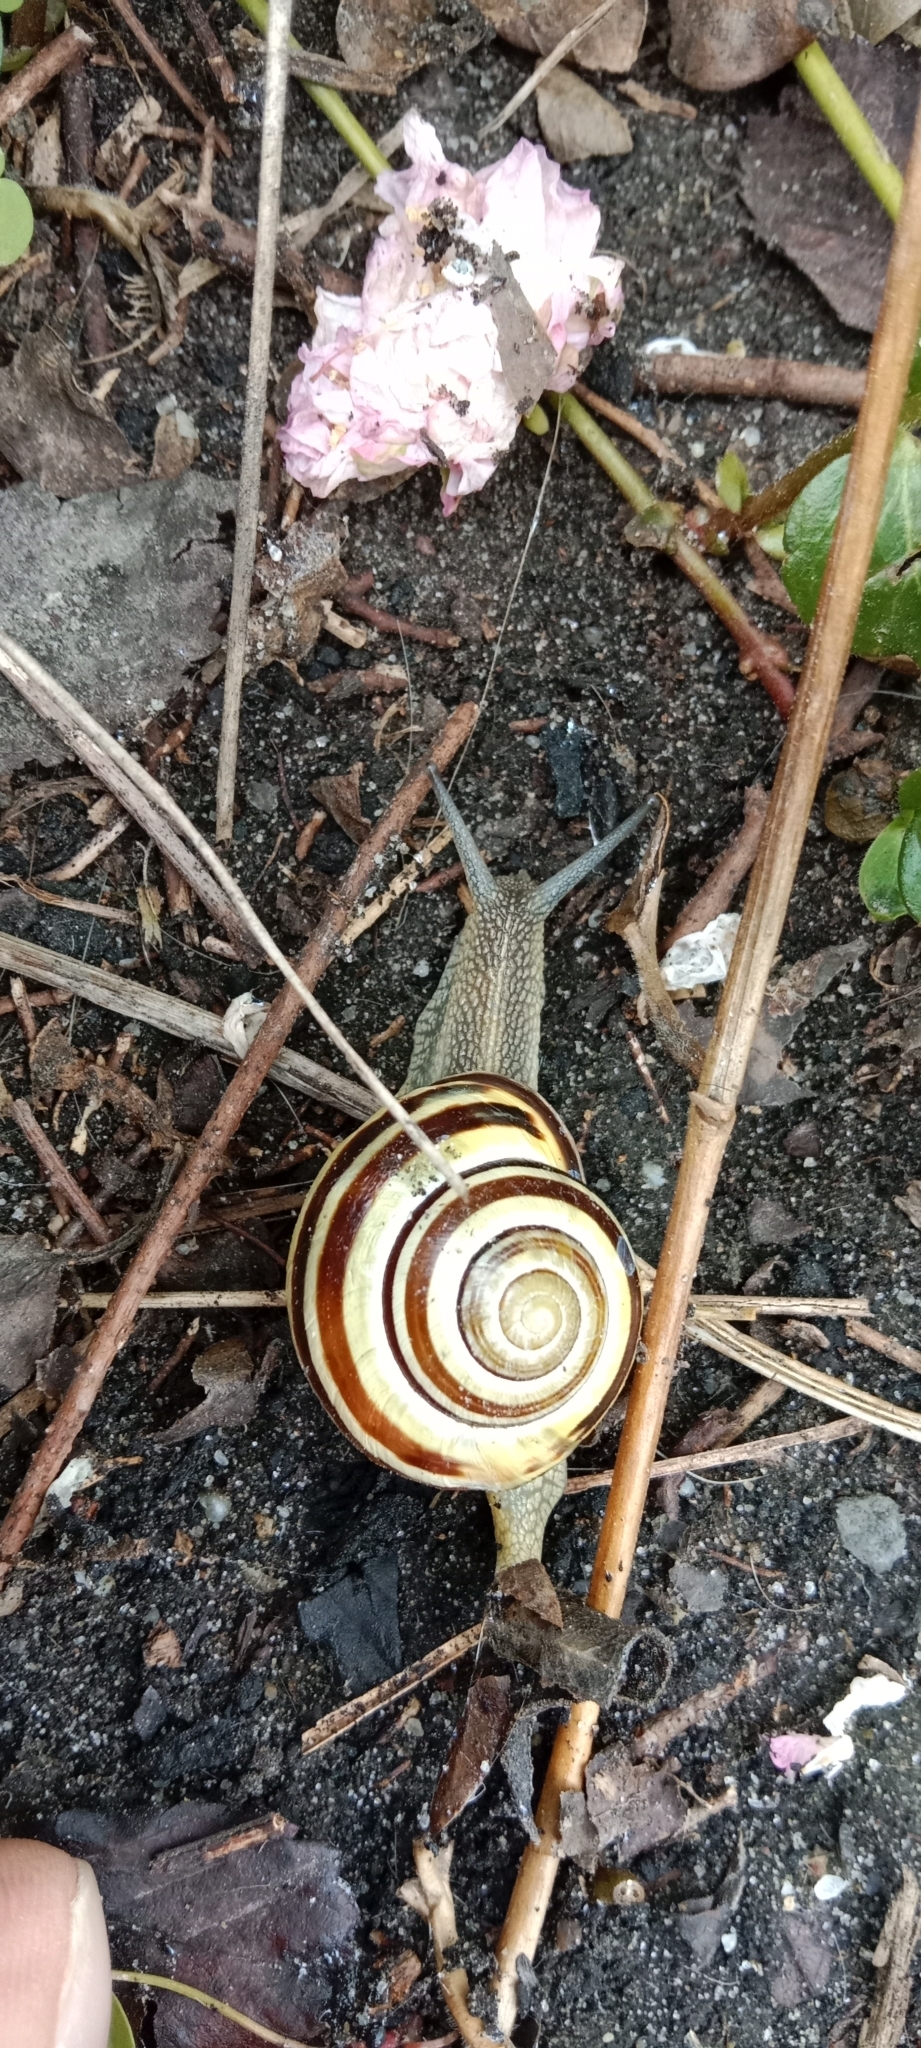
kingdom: Animalia
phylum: Mollusca
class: Gastropoda
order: Stylommatophora
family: Helicidae
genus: Cepaea
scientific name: Cepaea nemoralis
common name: Grovesnail
